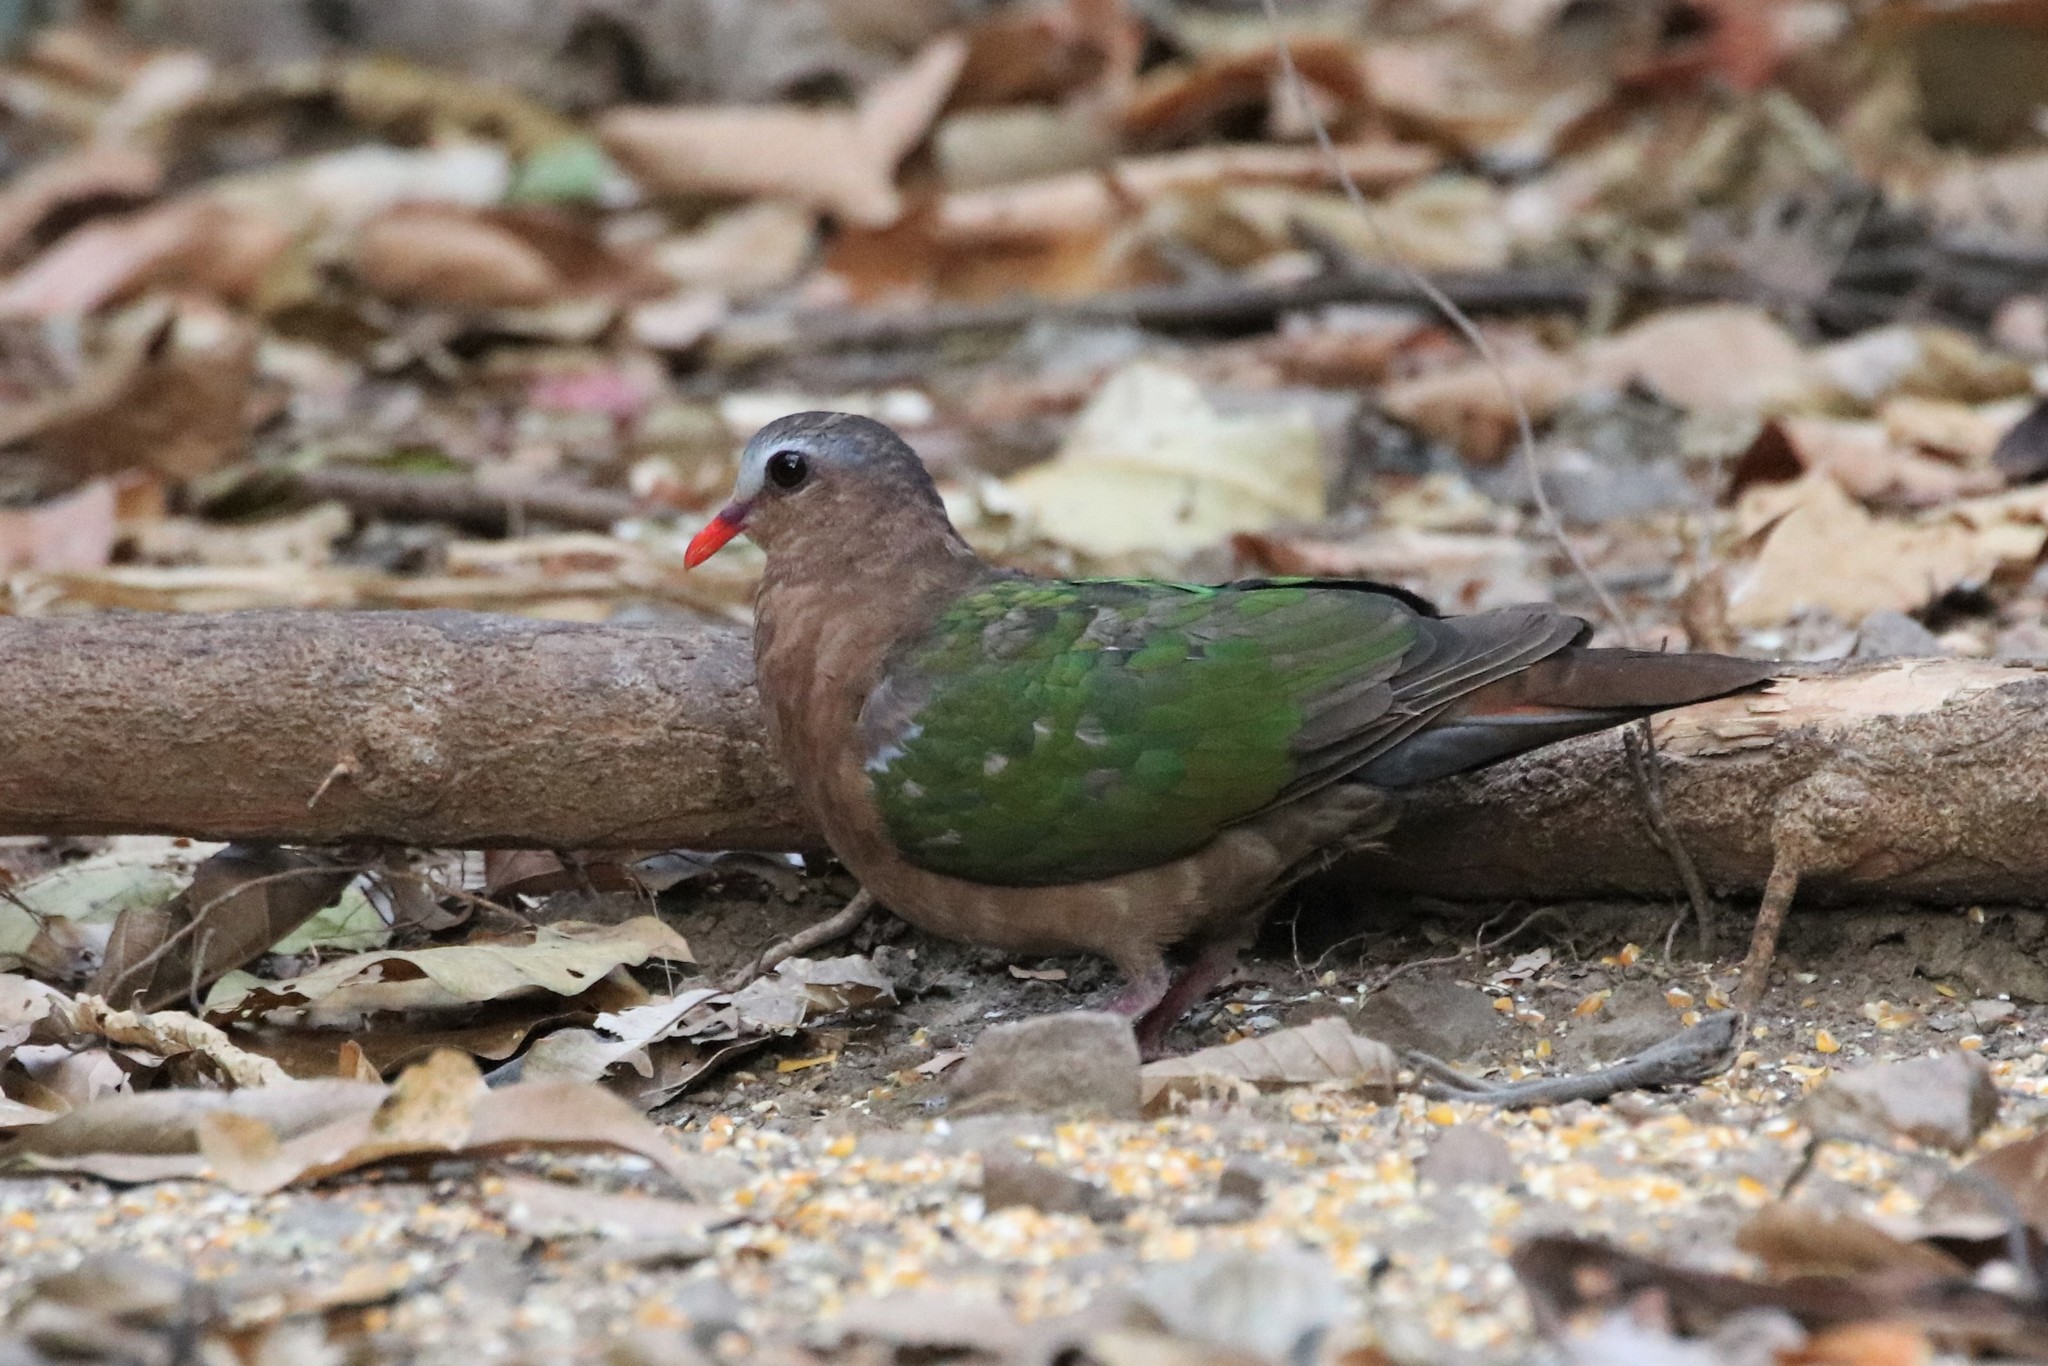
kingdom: Animalia
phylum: Chordata
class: Aves
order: Columbiformes
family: Columbidae
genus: Chalcophaps
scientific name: Chalcophaps indica
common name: Common emerald dove
